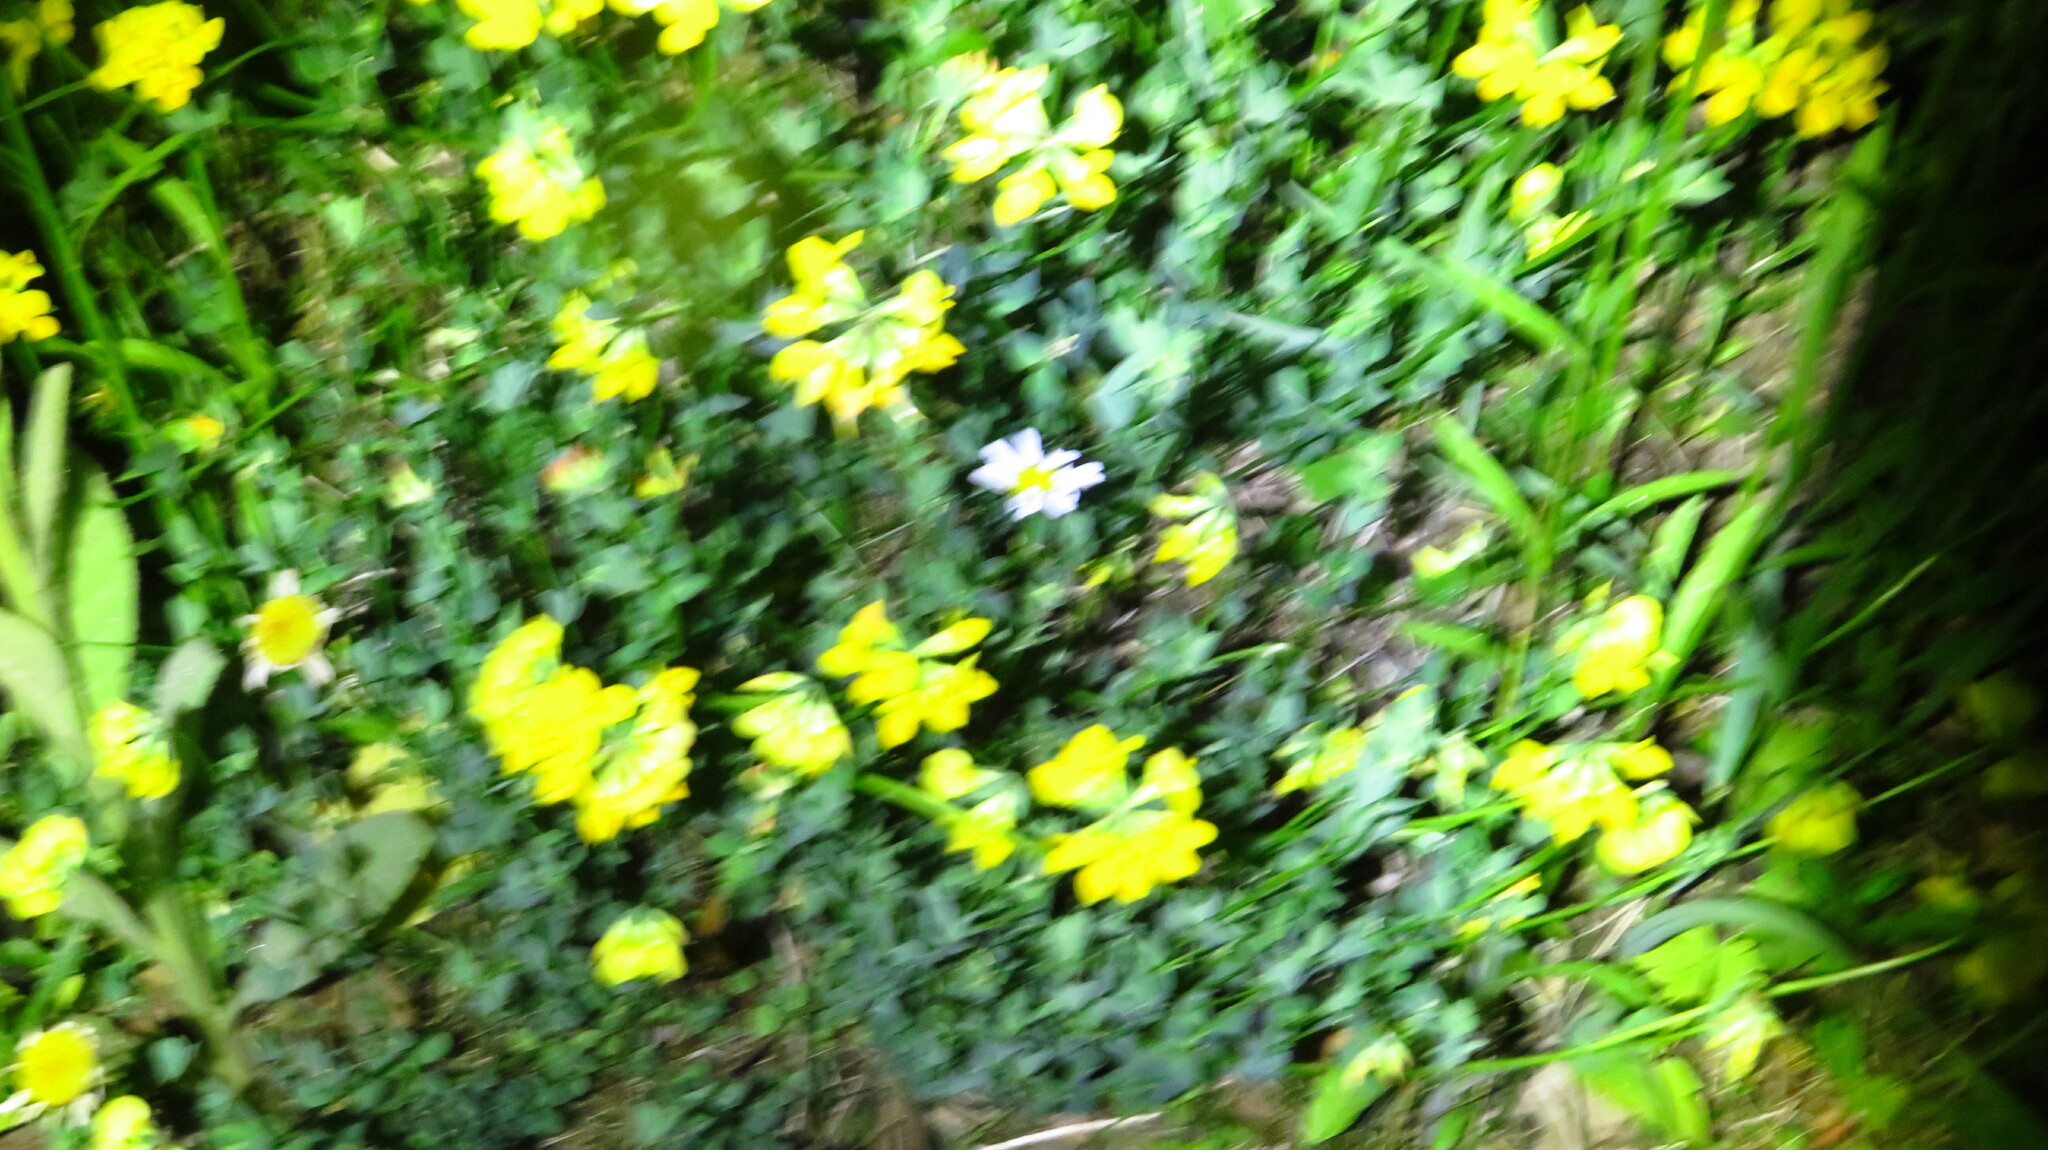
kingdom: Plantae
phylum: Tracheophyta
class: Magnoliopsida
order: Fabales
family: Fabaceae
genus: Lotus
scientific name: Lotus corniculatus
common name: Common bird's-foot-trefoil
